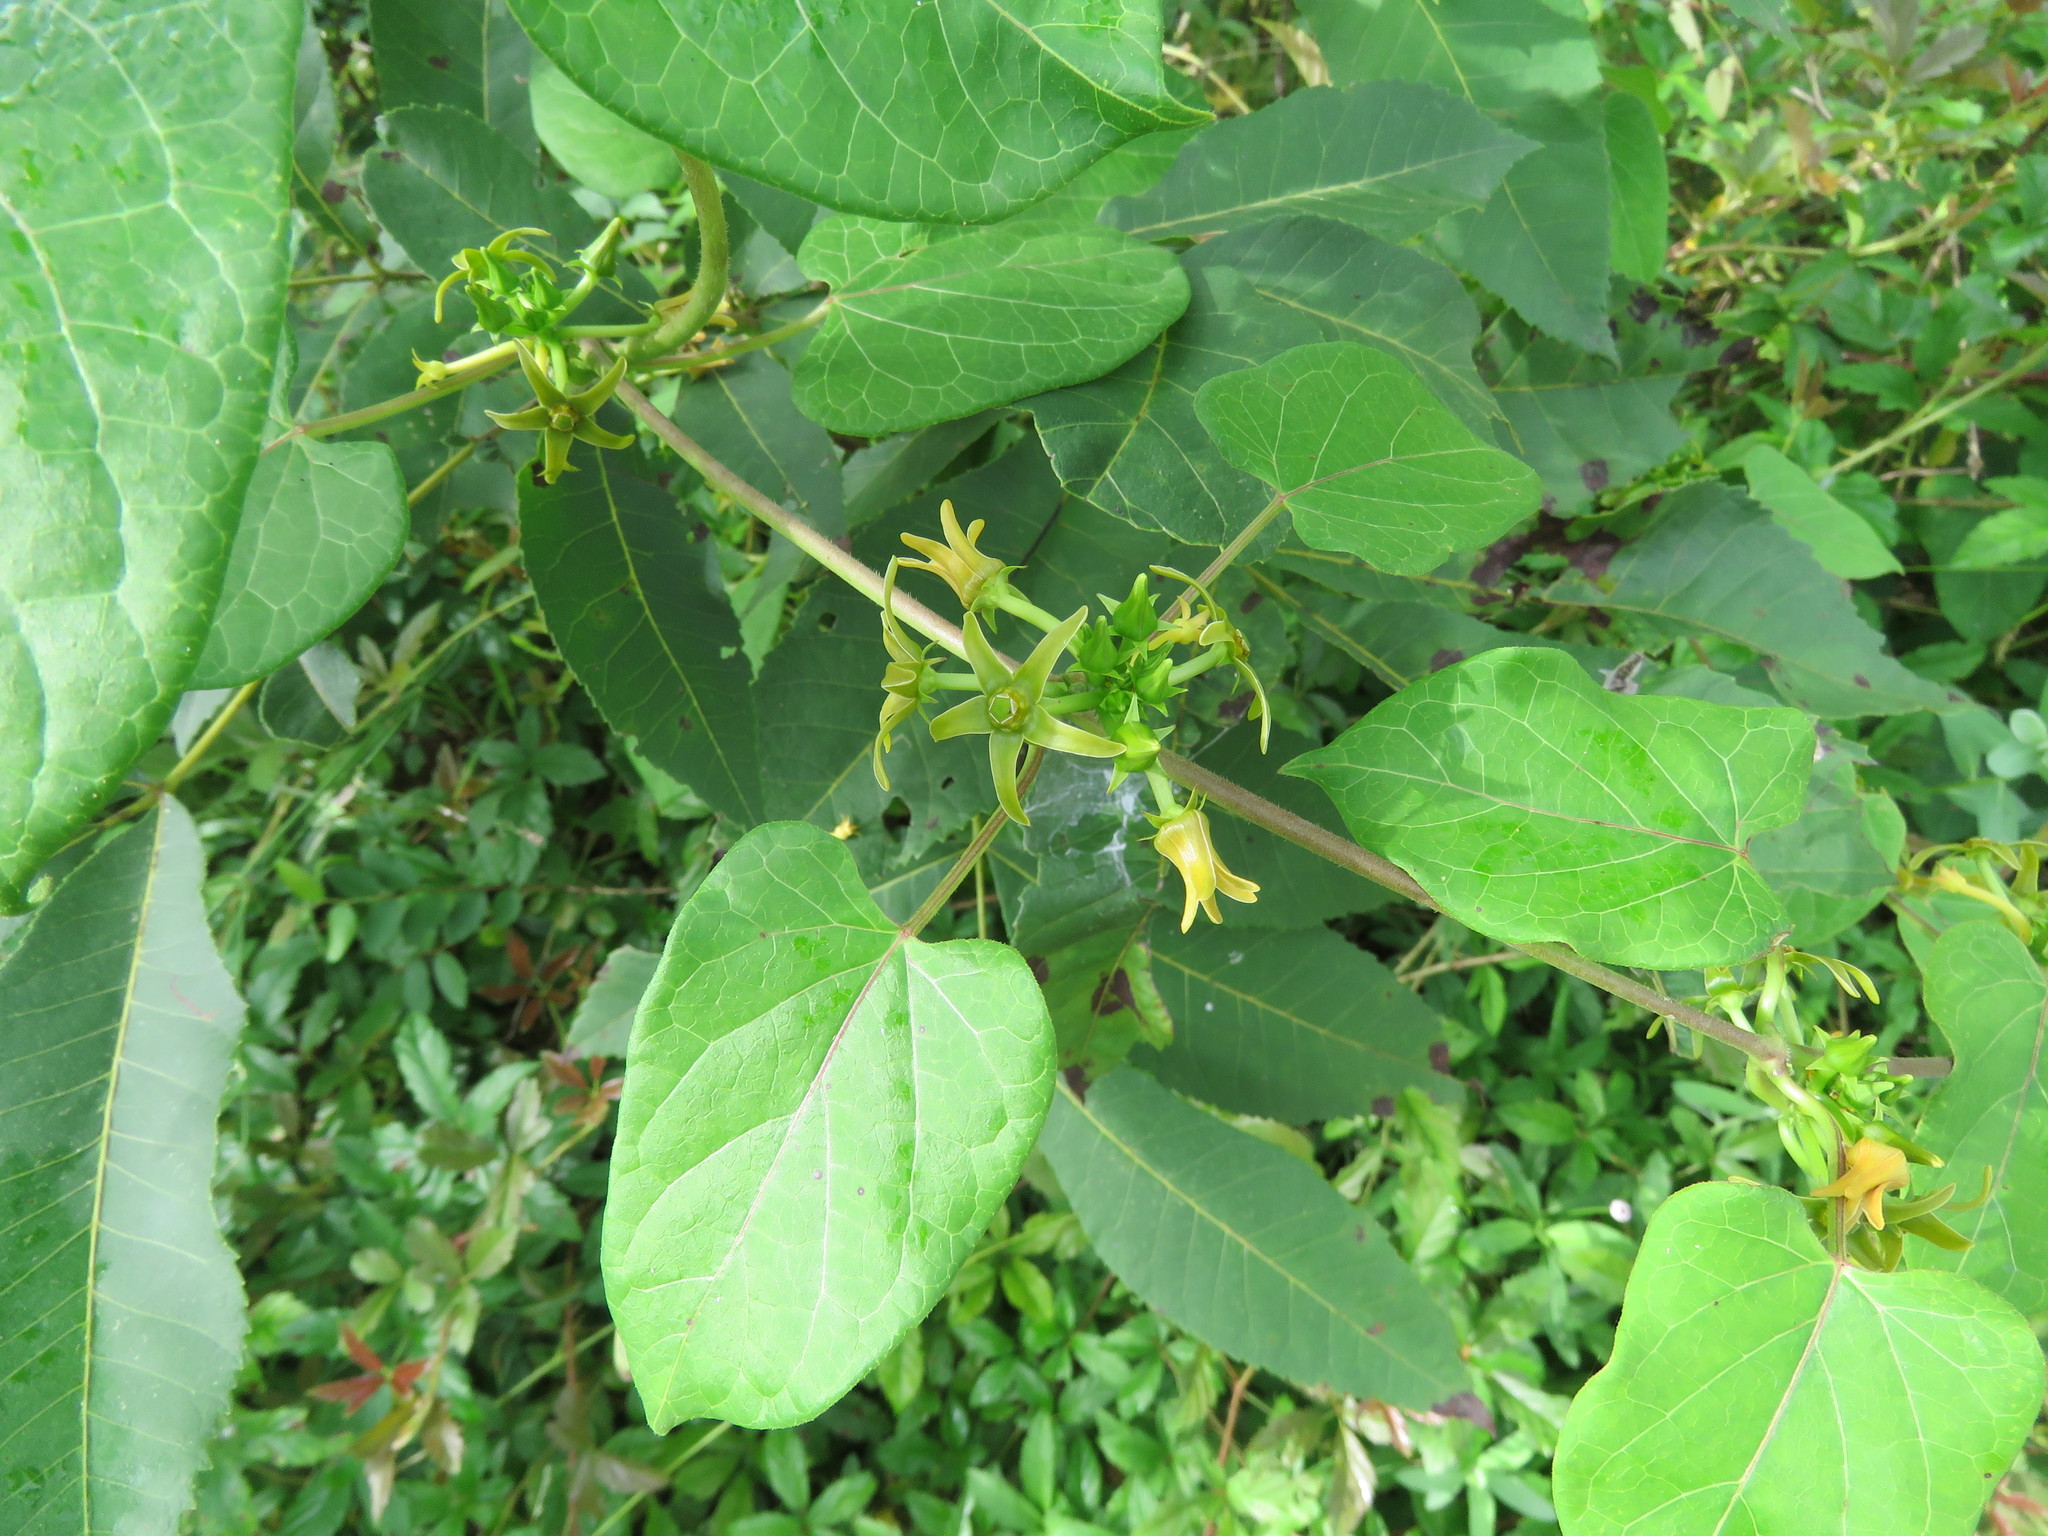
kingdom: Plantae
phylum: Tracheophyta
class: Magnoliopsida
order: Gentianales
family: Apocynaceae
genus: Gonolobus
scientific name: Gonolobus suberosus
